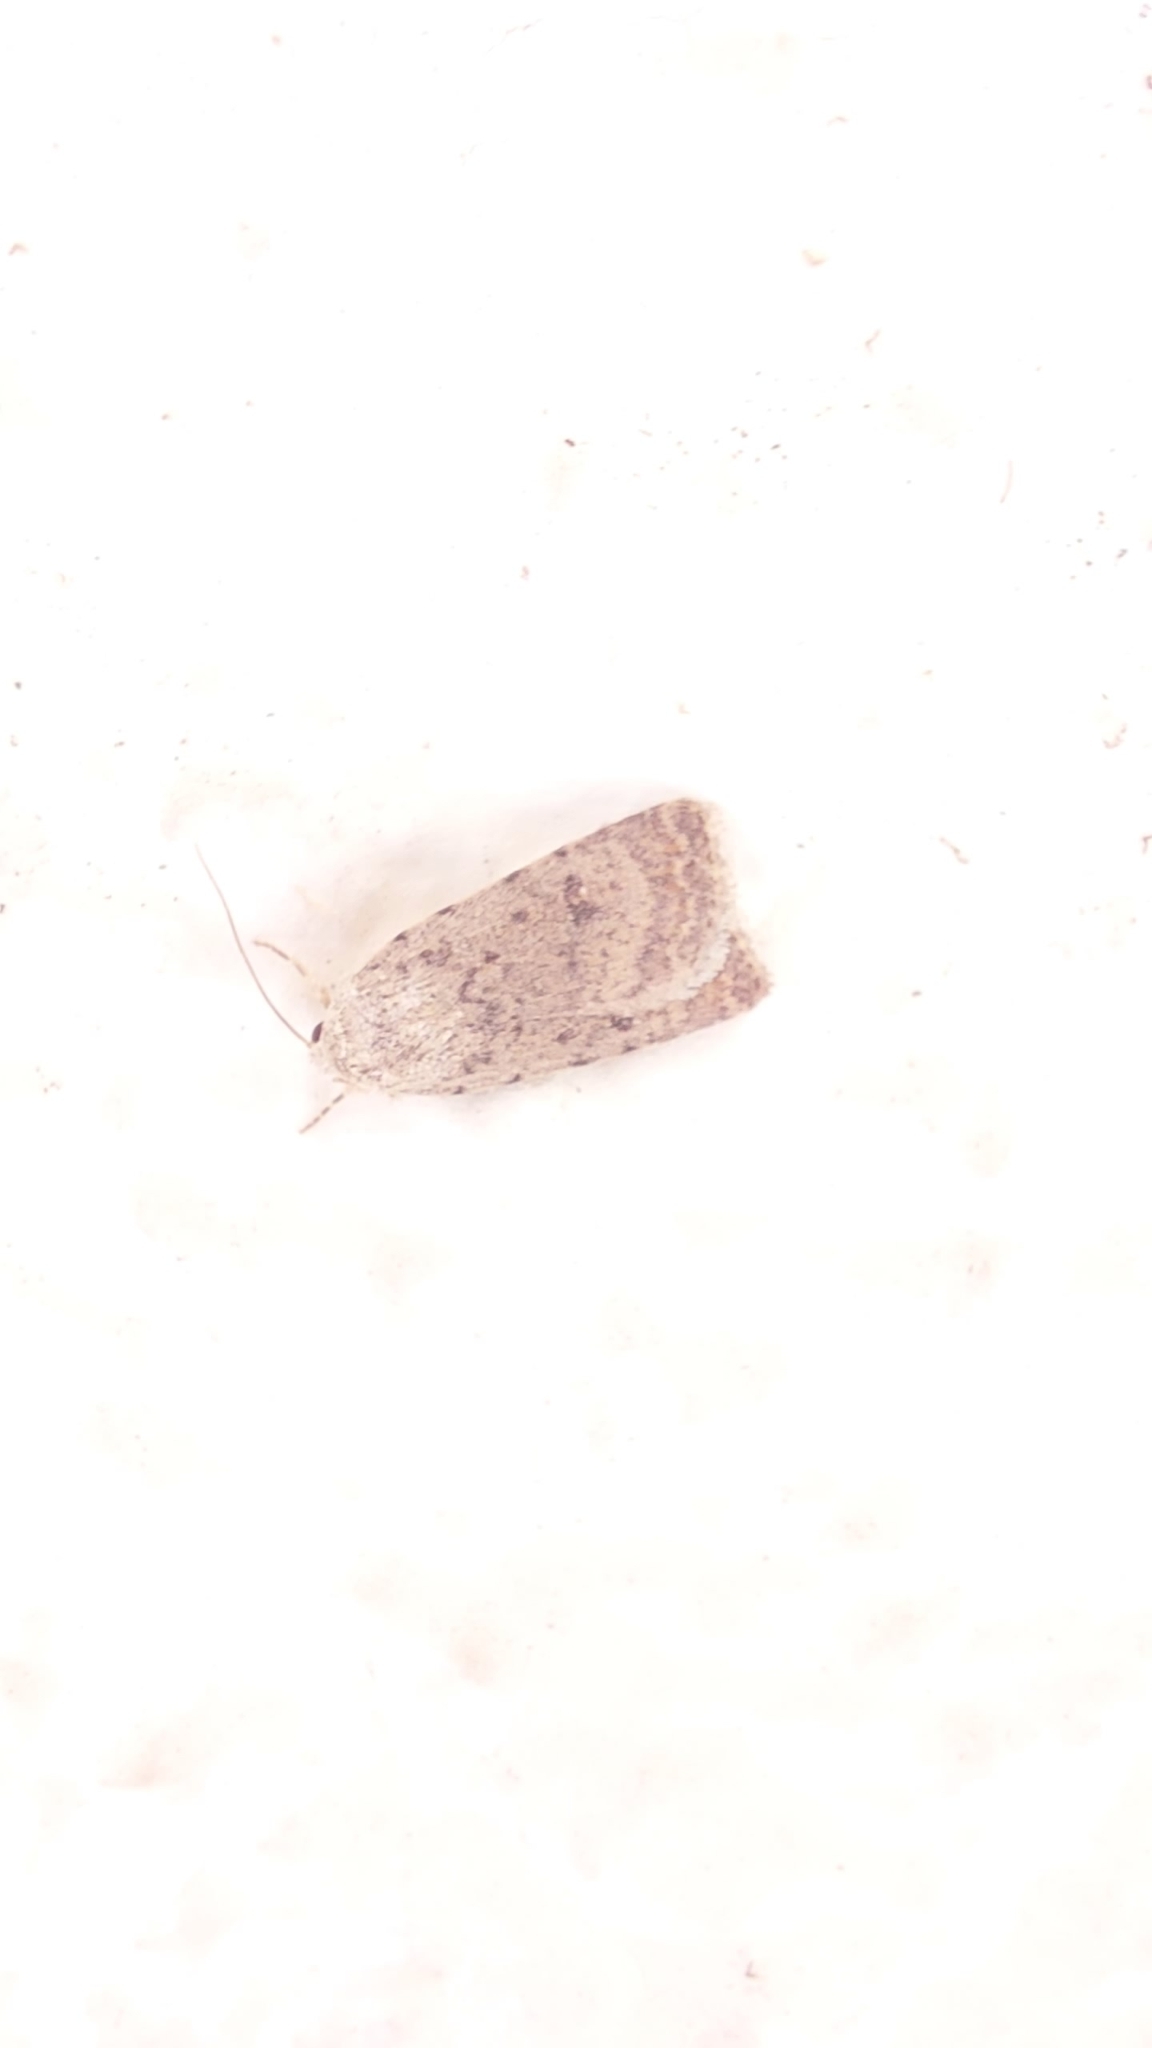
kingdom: Animalia
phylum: Arthropoda
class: Insecta
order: Lepidoptera
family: Noctuidae
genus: Caradrina
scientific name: Caradrina clavipalpis
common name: Pale mottled willow
